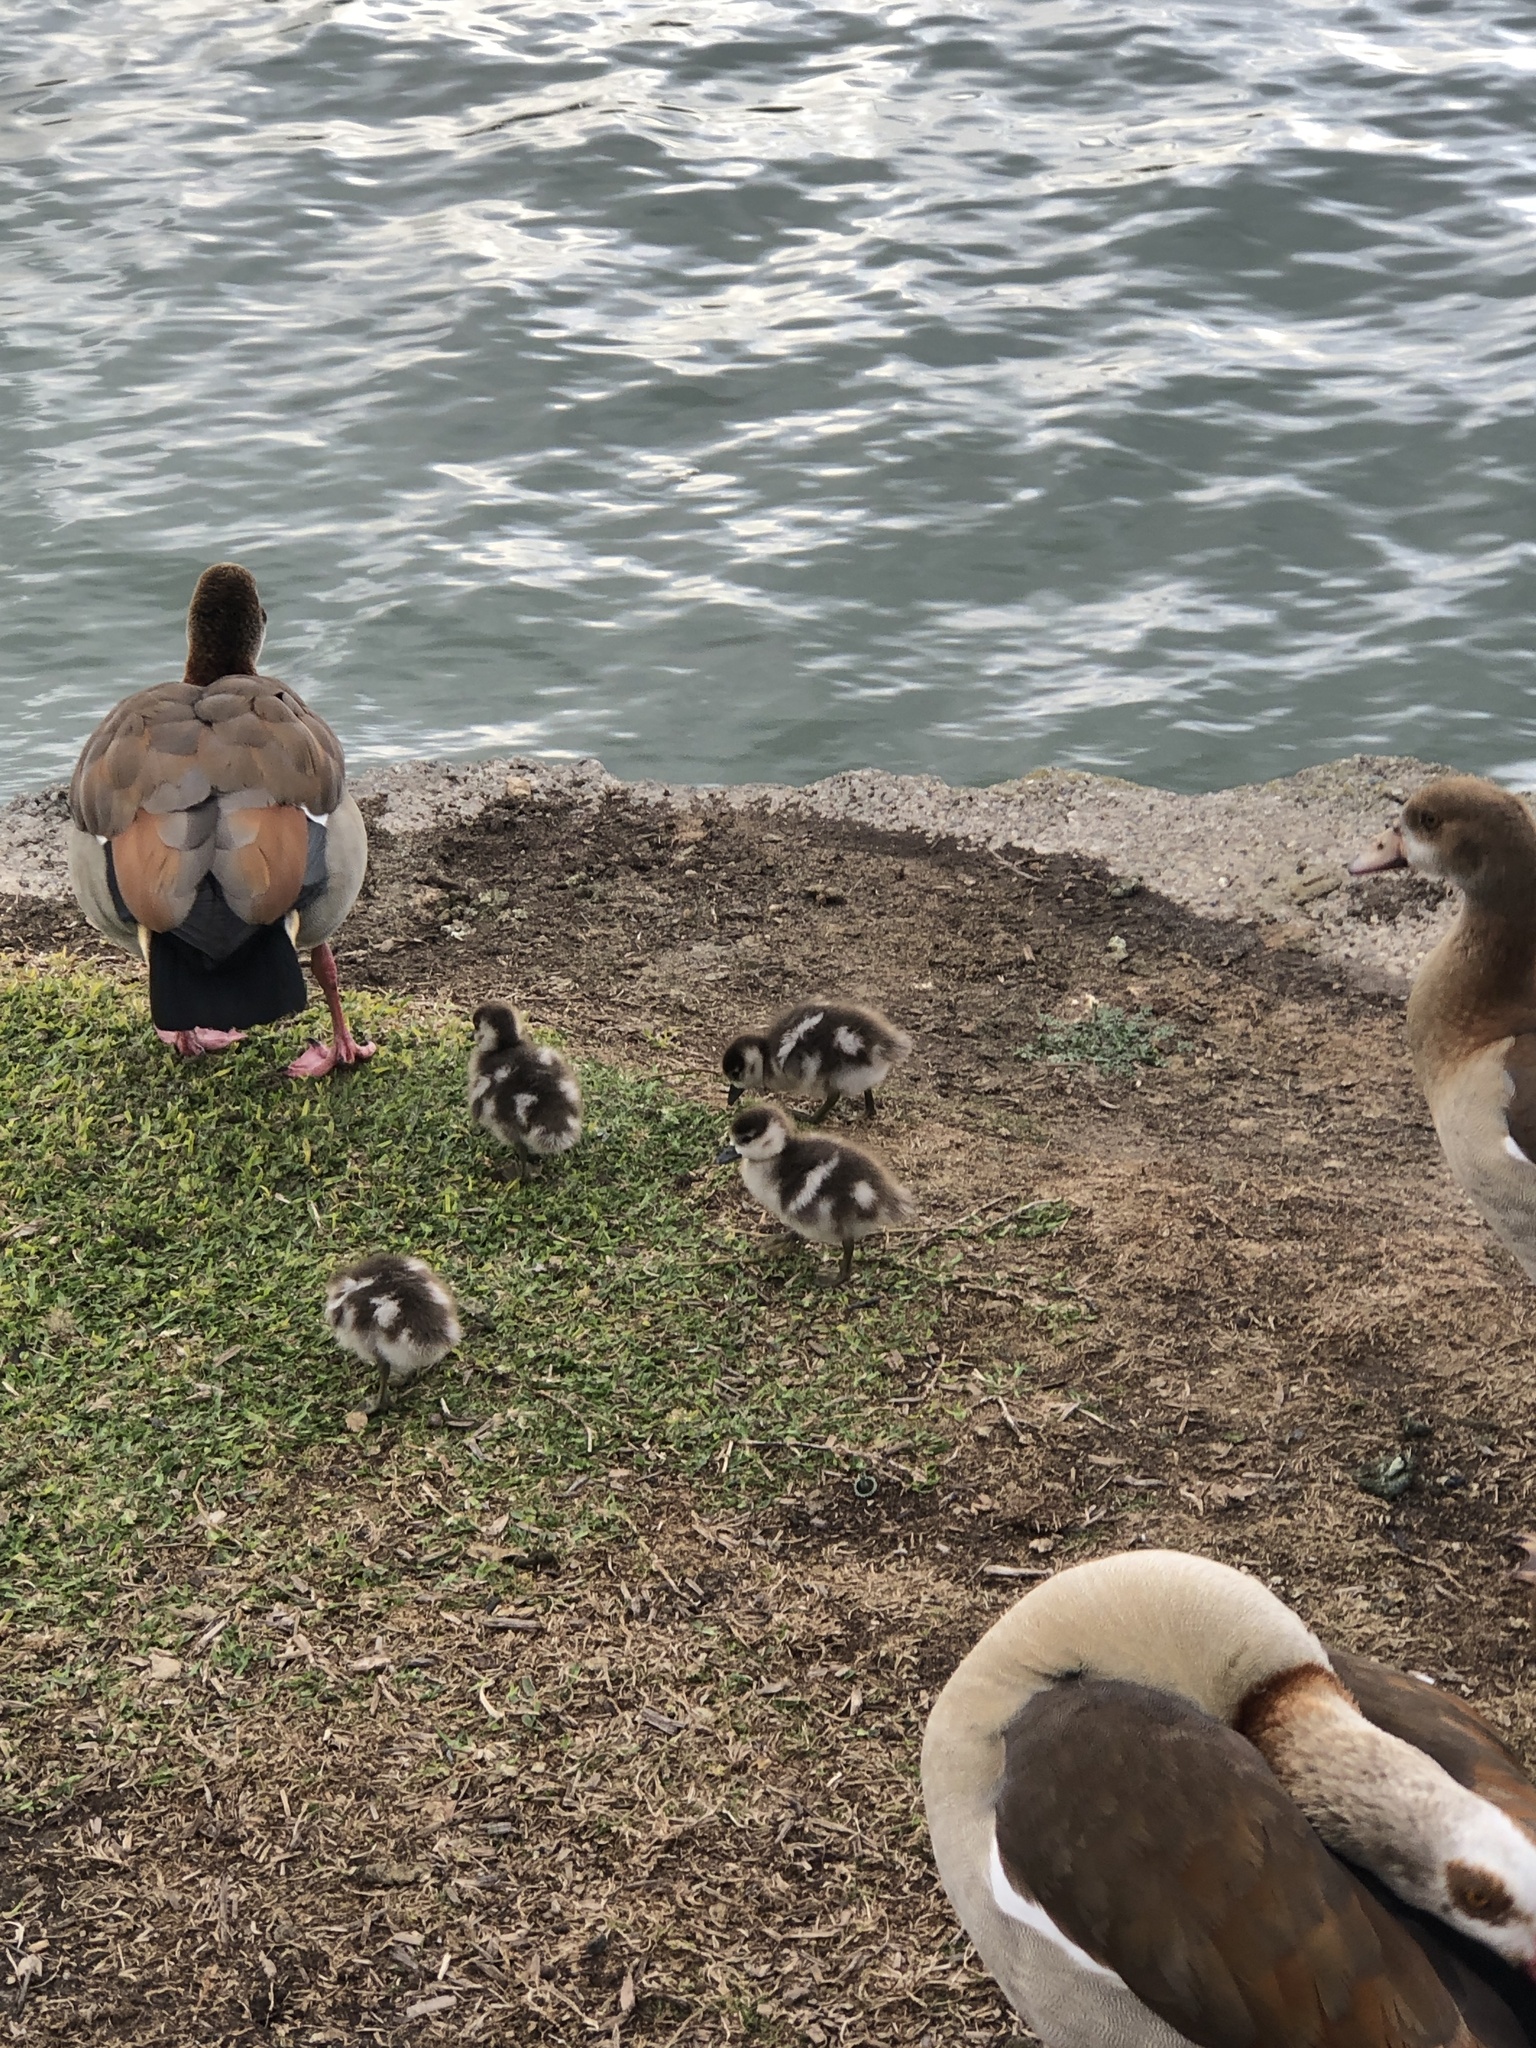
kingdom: Animalia
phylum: Chordata
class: Aves
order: Anseriformes
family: Anatidae
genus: Alopochen
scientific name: Alopochen aegyptiaca
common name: Egyptian goose
